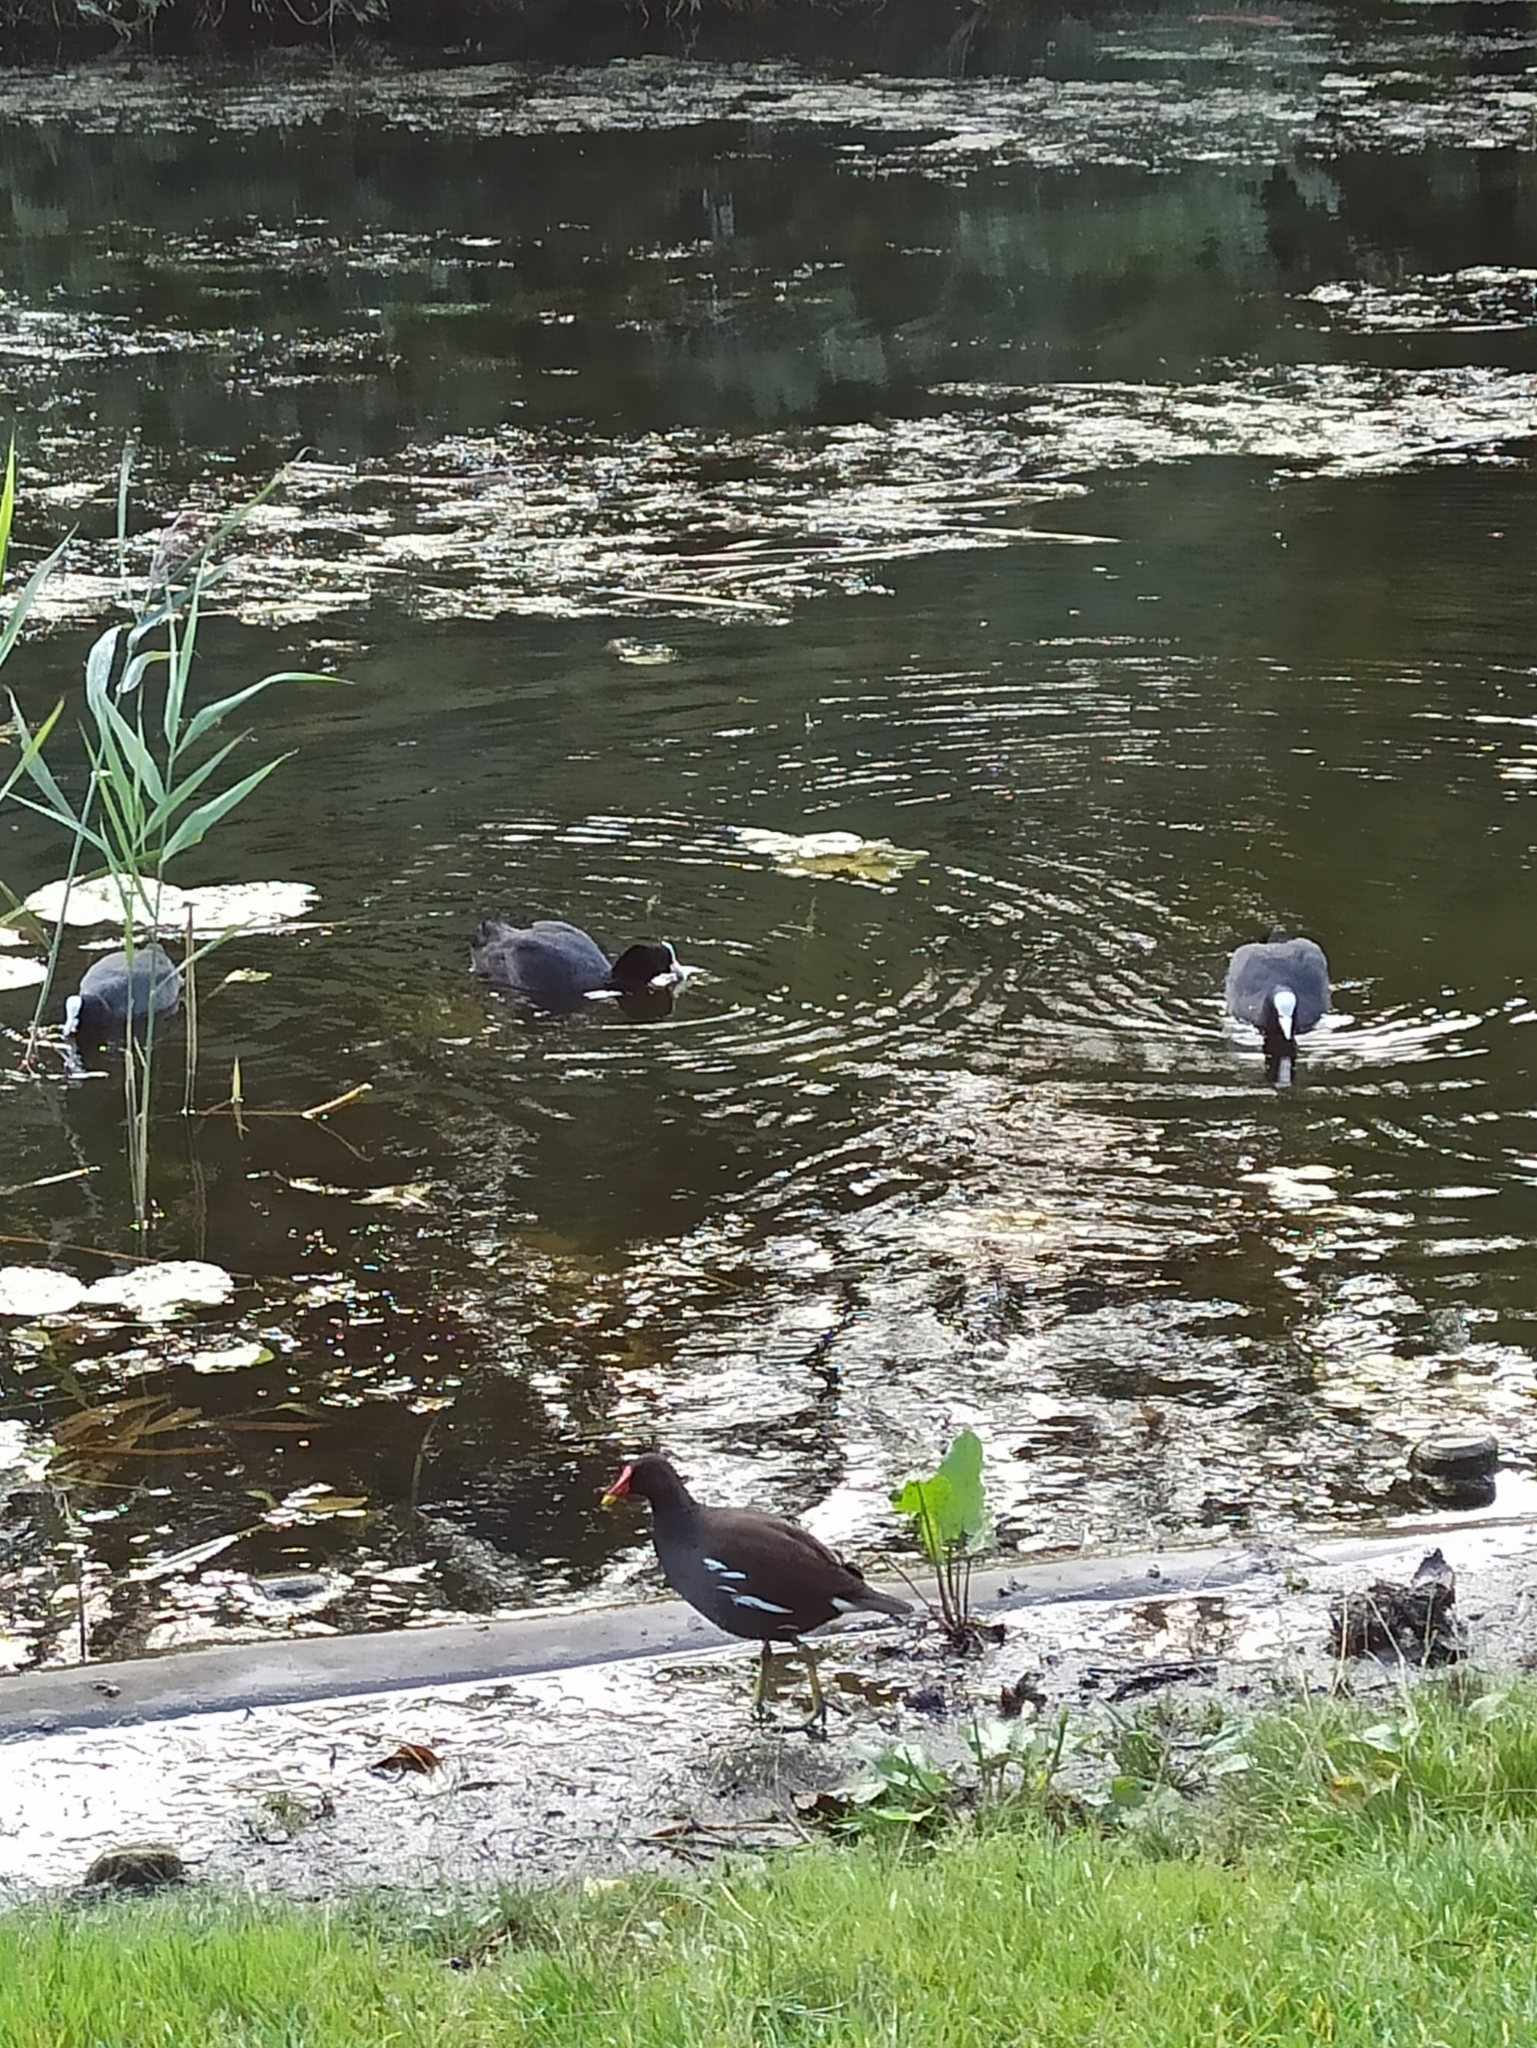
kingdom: Animalia
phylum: Chordata
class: Aves
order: Gruiformes
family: Rallidae
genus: Gallinula
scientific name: Gallinula chloropus
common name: Common moorhen
